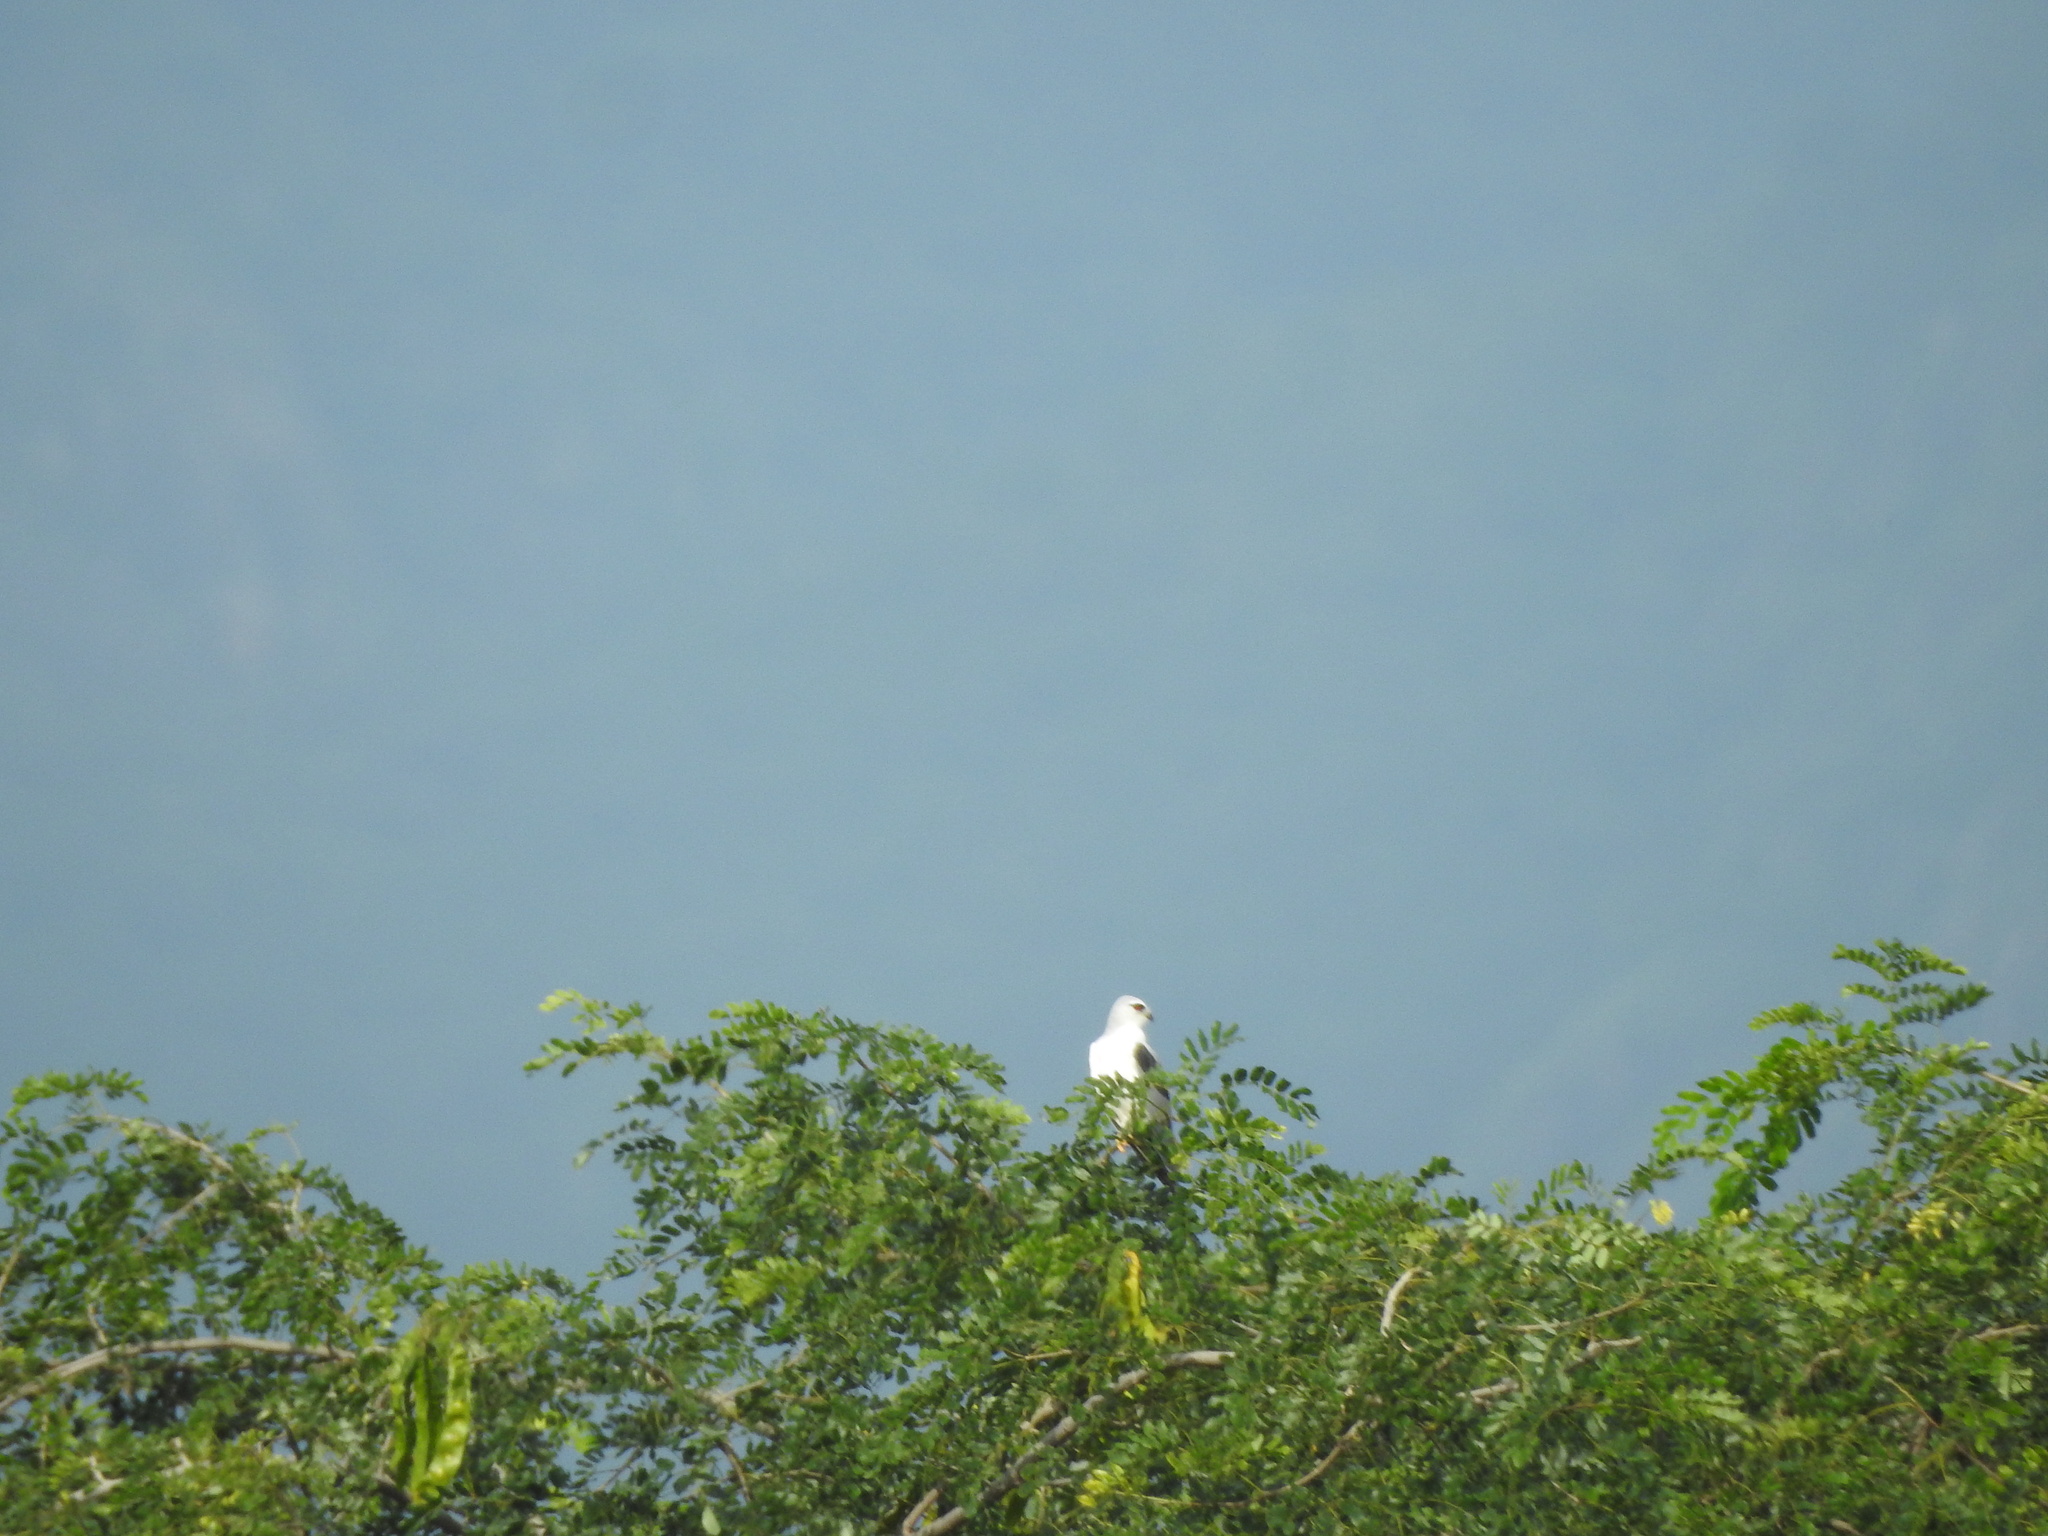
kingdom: Animalia
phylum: Chordata
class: Aves
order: Accipitriformes
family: Accipitridae
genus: Elanus
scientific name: Elanus caeruleus
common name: Black-winged kite
